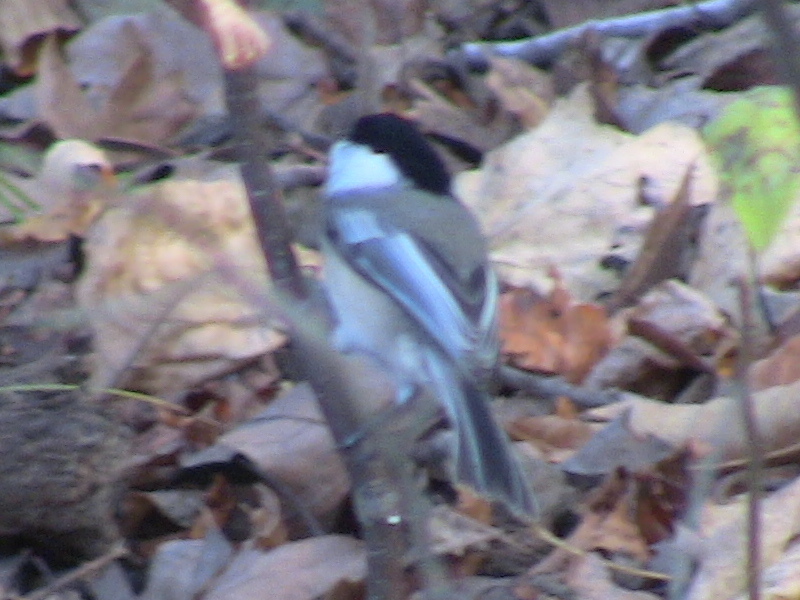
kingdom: Animalia
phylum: Chordata
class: Aves
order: Passeriformes
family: Paridae
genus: Poecile
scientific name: Poecile atricapillus
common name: Black-capped chickadee
